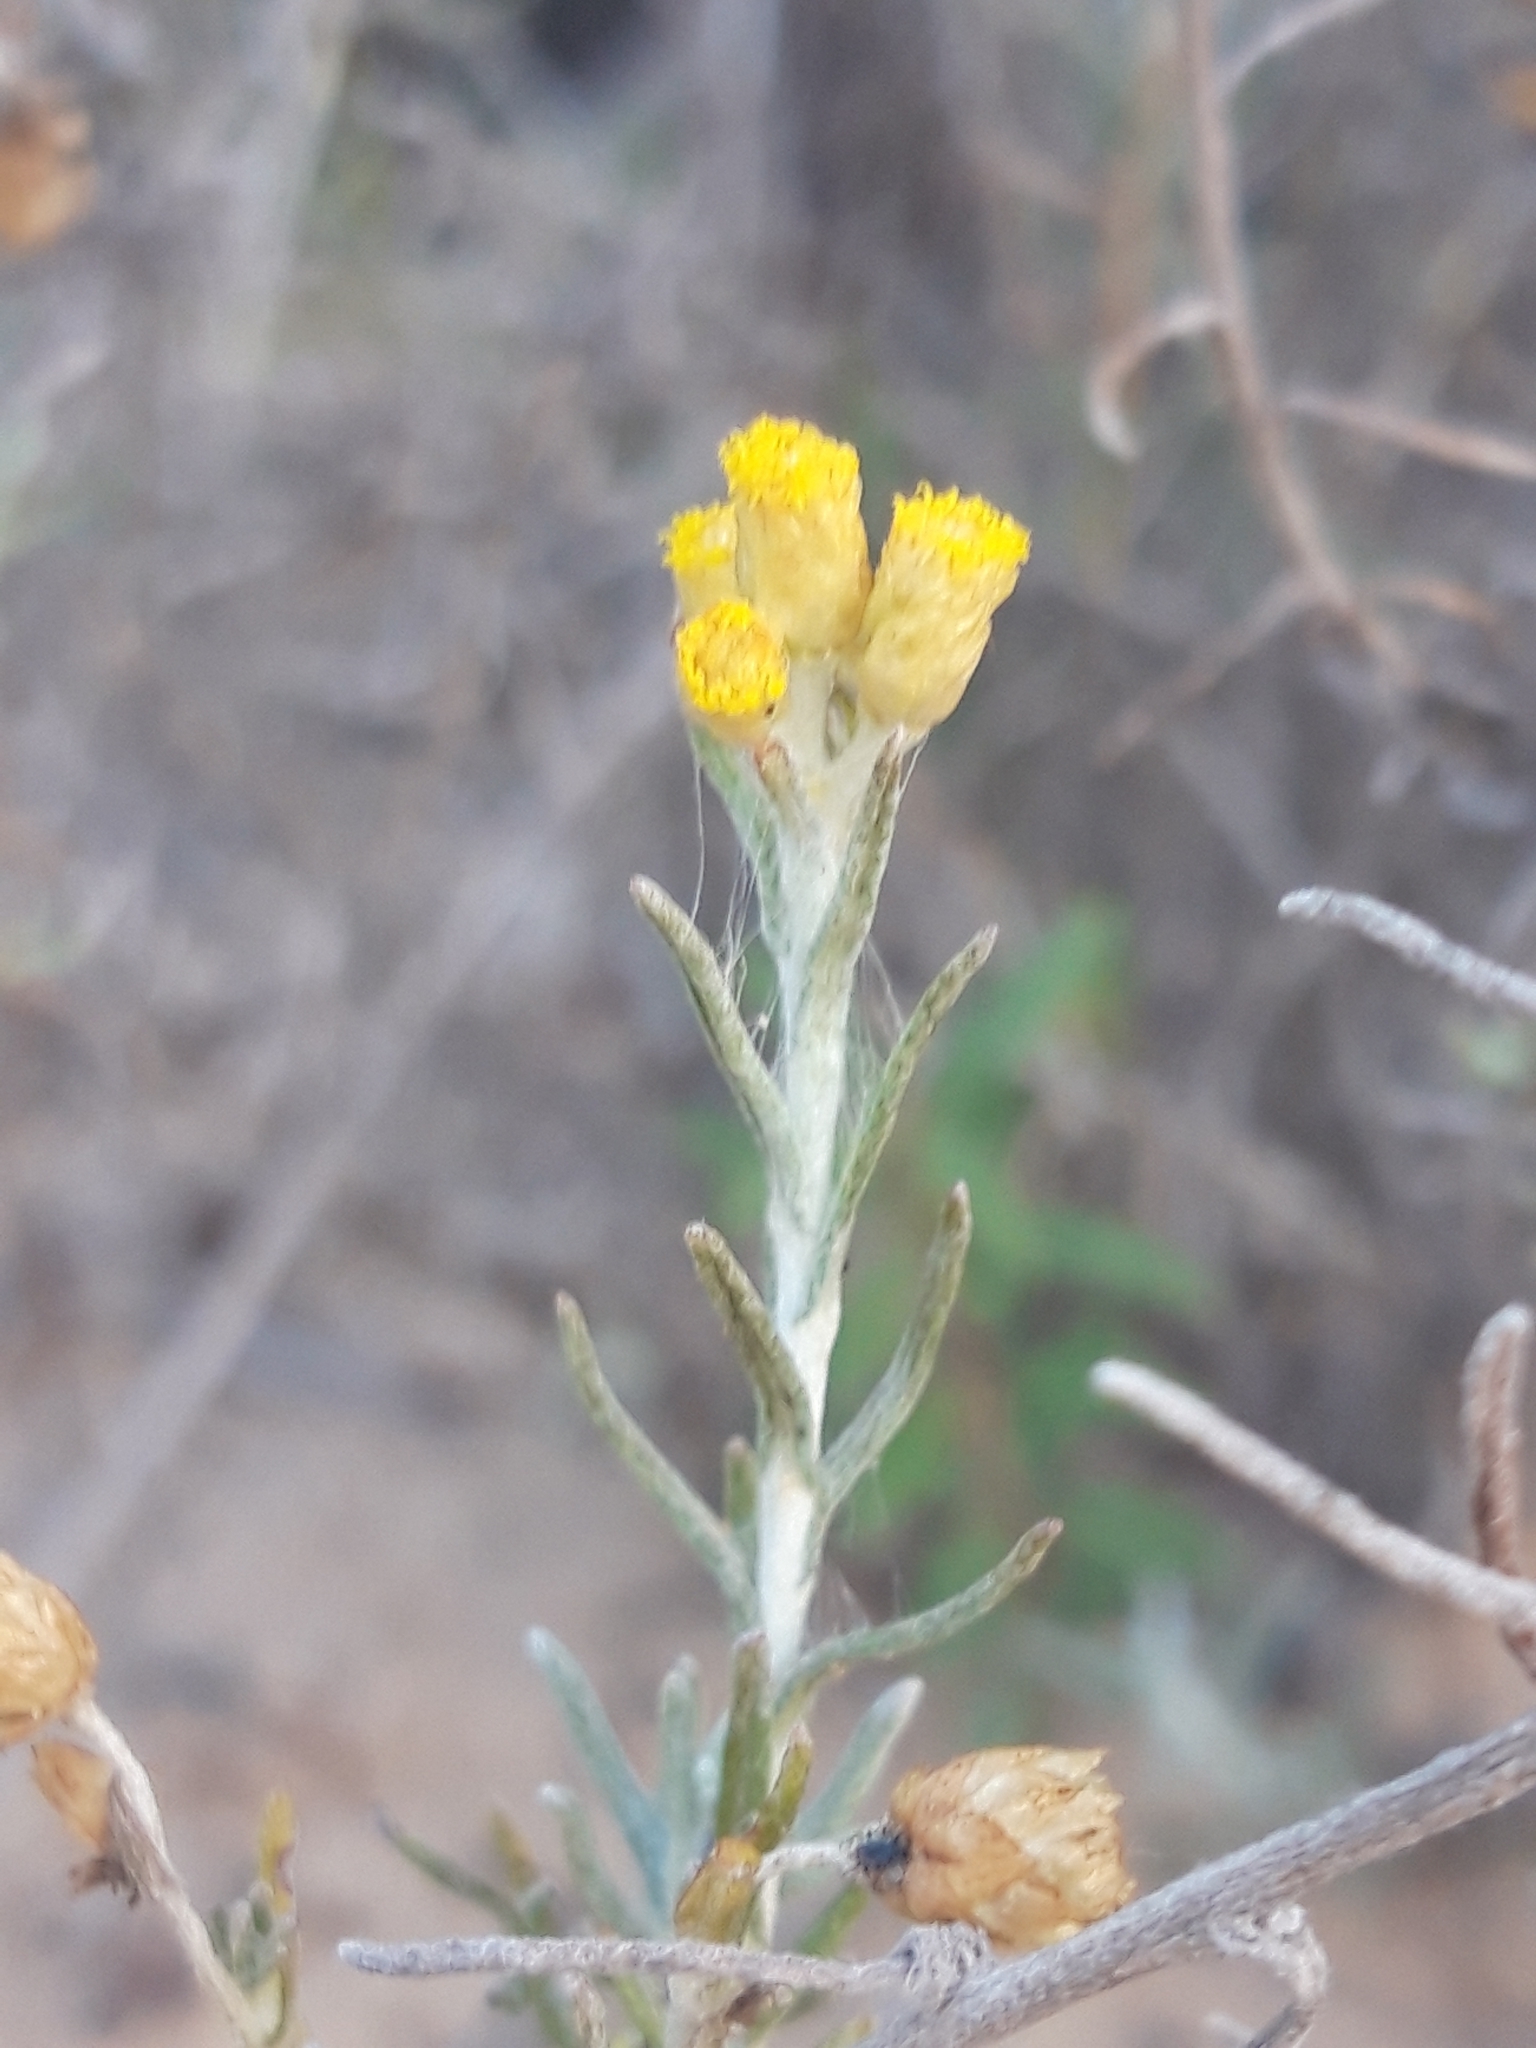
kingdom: Plantae
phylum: Tracheophyta
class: Magnoliopsida
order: Asterales
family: Asteraceae
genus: Helichrysum
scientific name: Helichrysum stoechas
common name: Goldilocks
